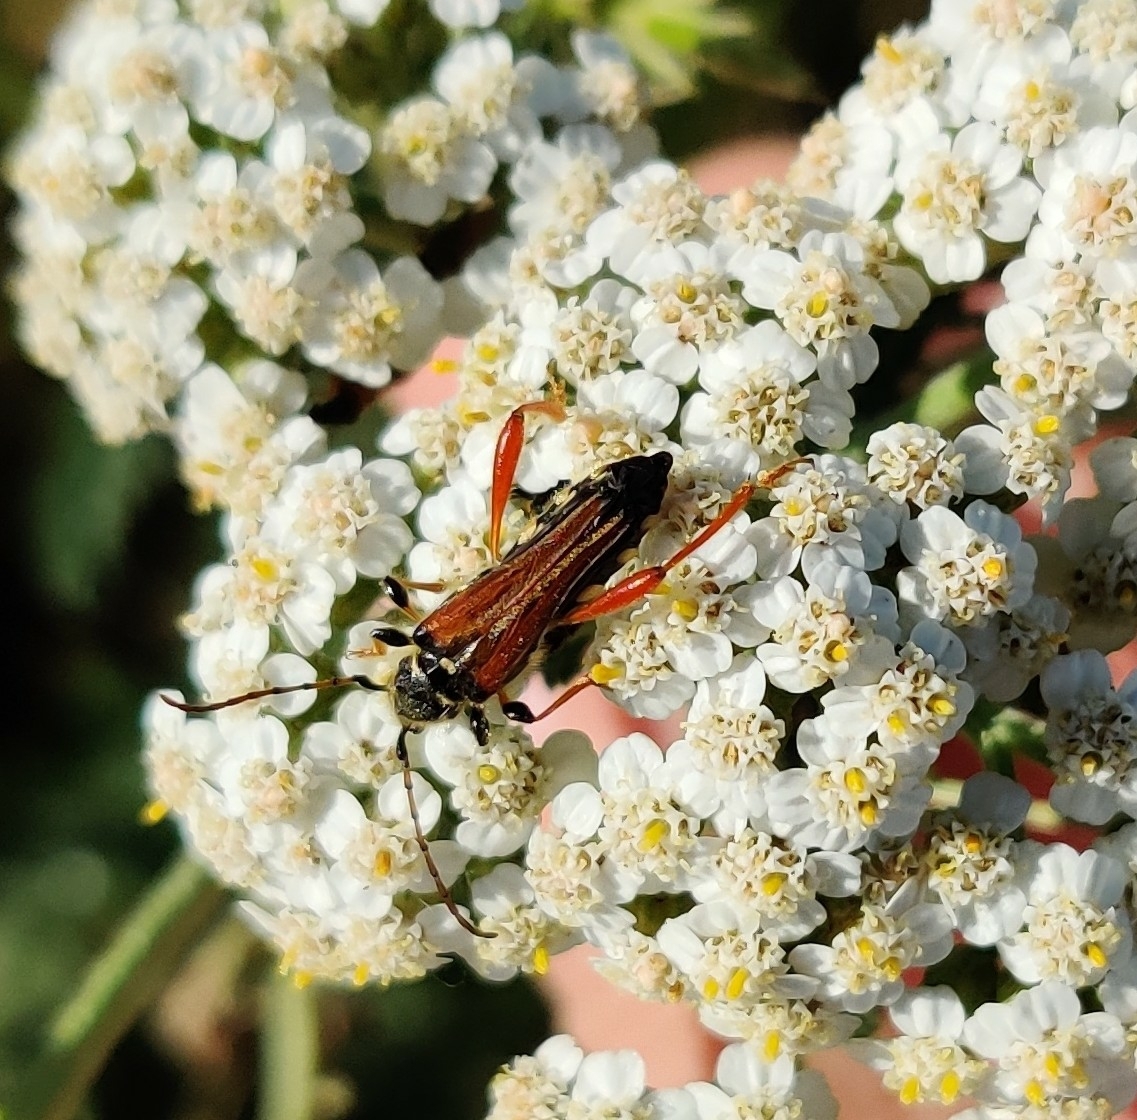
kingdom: Animalia
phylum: Arthropoda
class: Insecta
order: Coleoptera
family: Cerambycidae
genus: Stenopterus
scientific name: Stenopterus rufus
